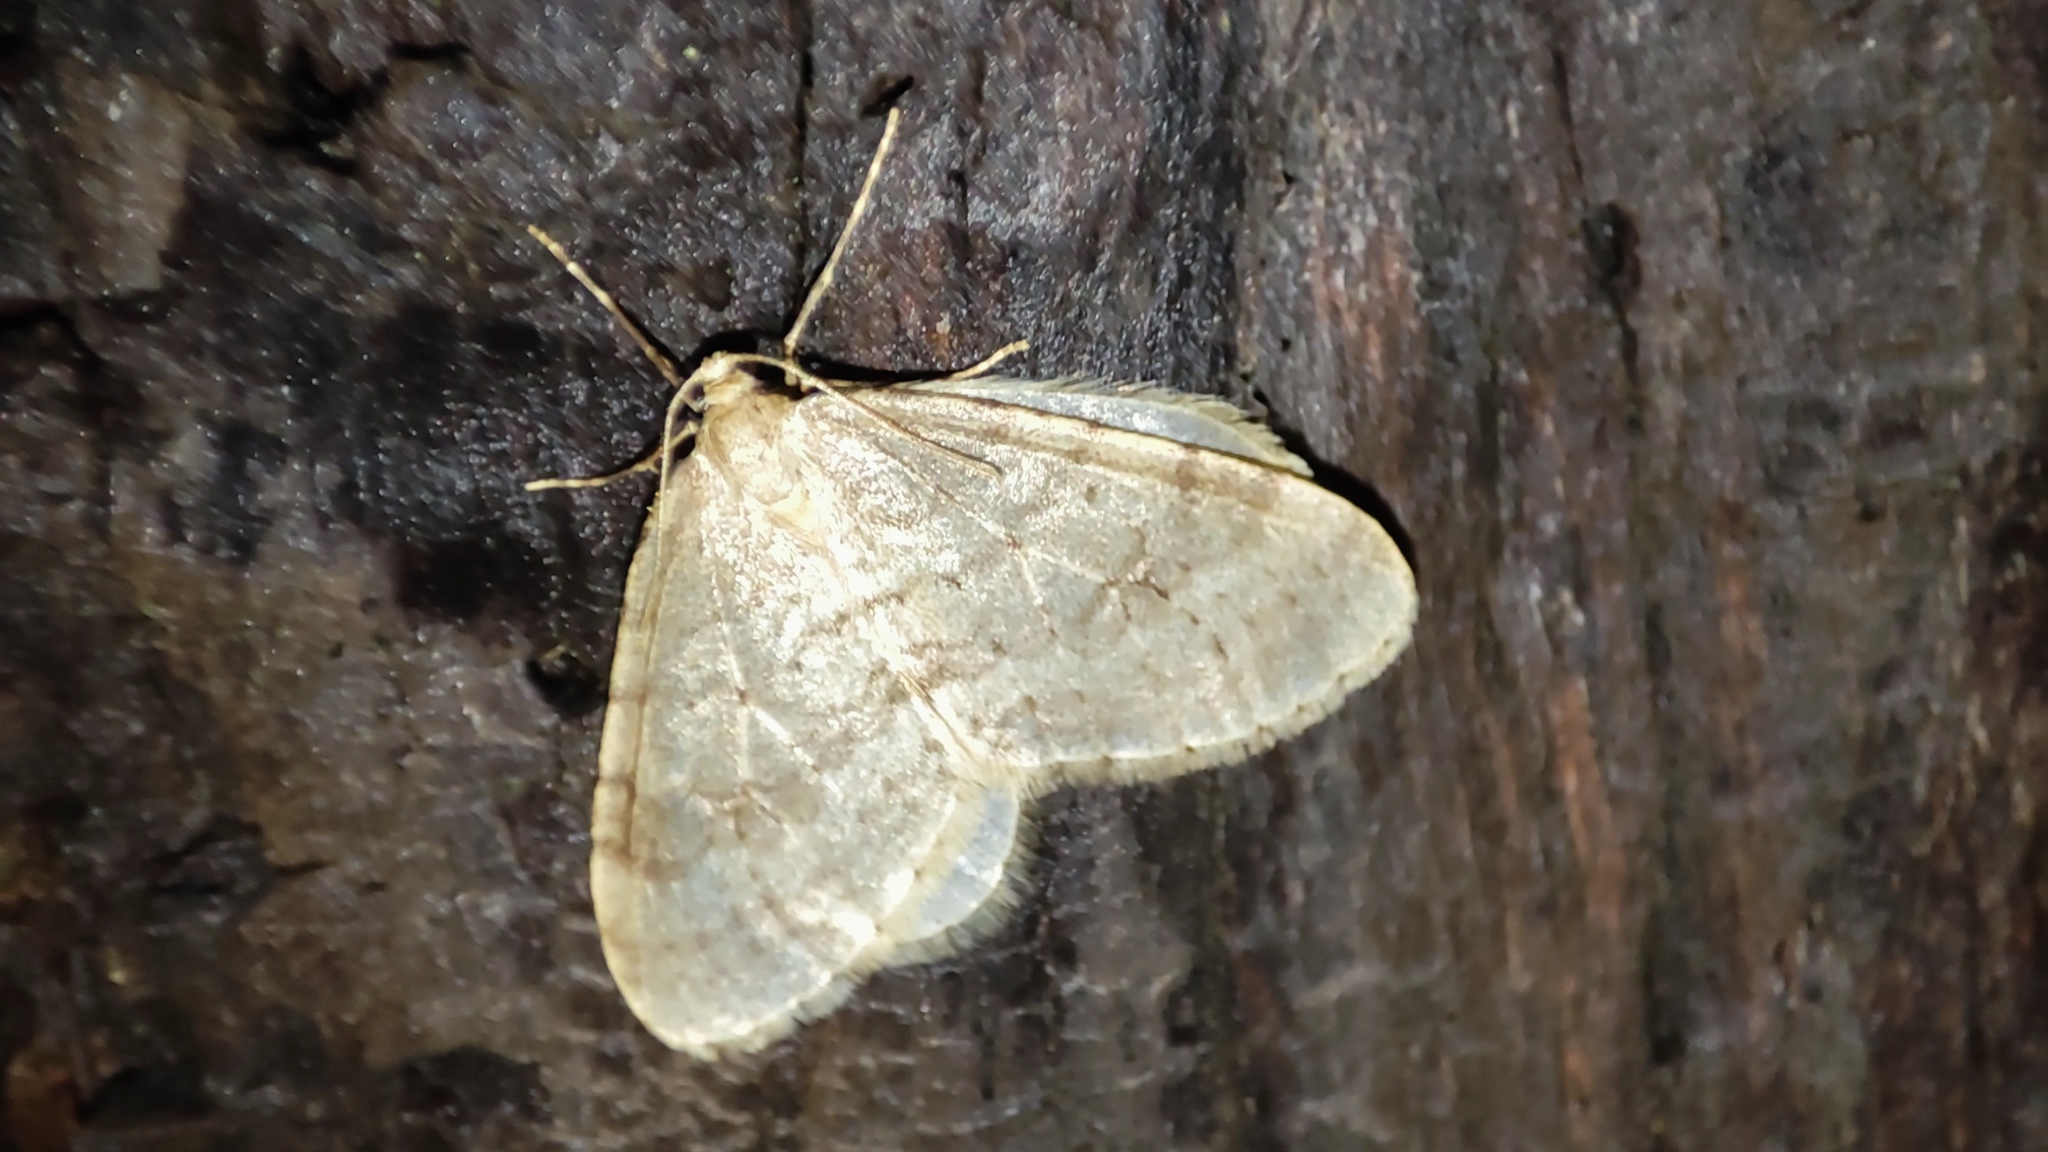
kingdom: Animalia
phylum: Arthropoda
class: Insecta
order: Lepidoptera
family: Geometridae
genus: Operophtera
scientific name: Operophtera fagata
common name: Northern winter moth
